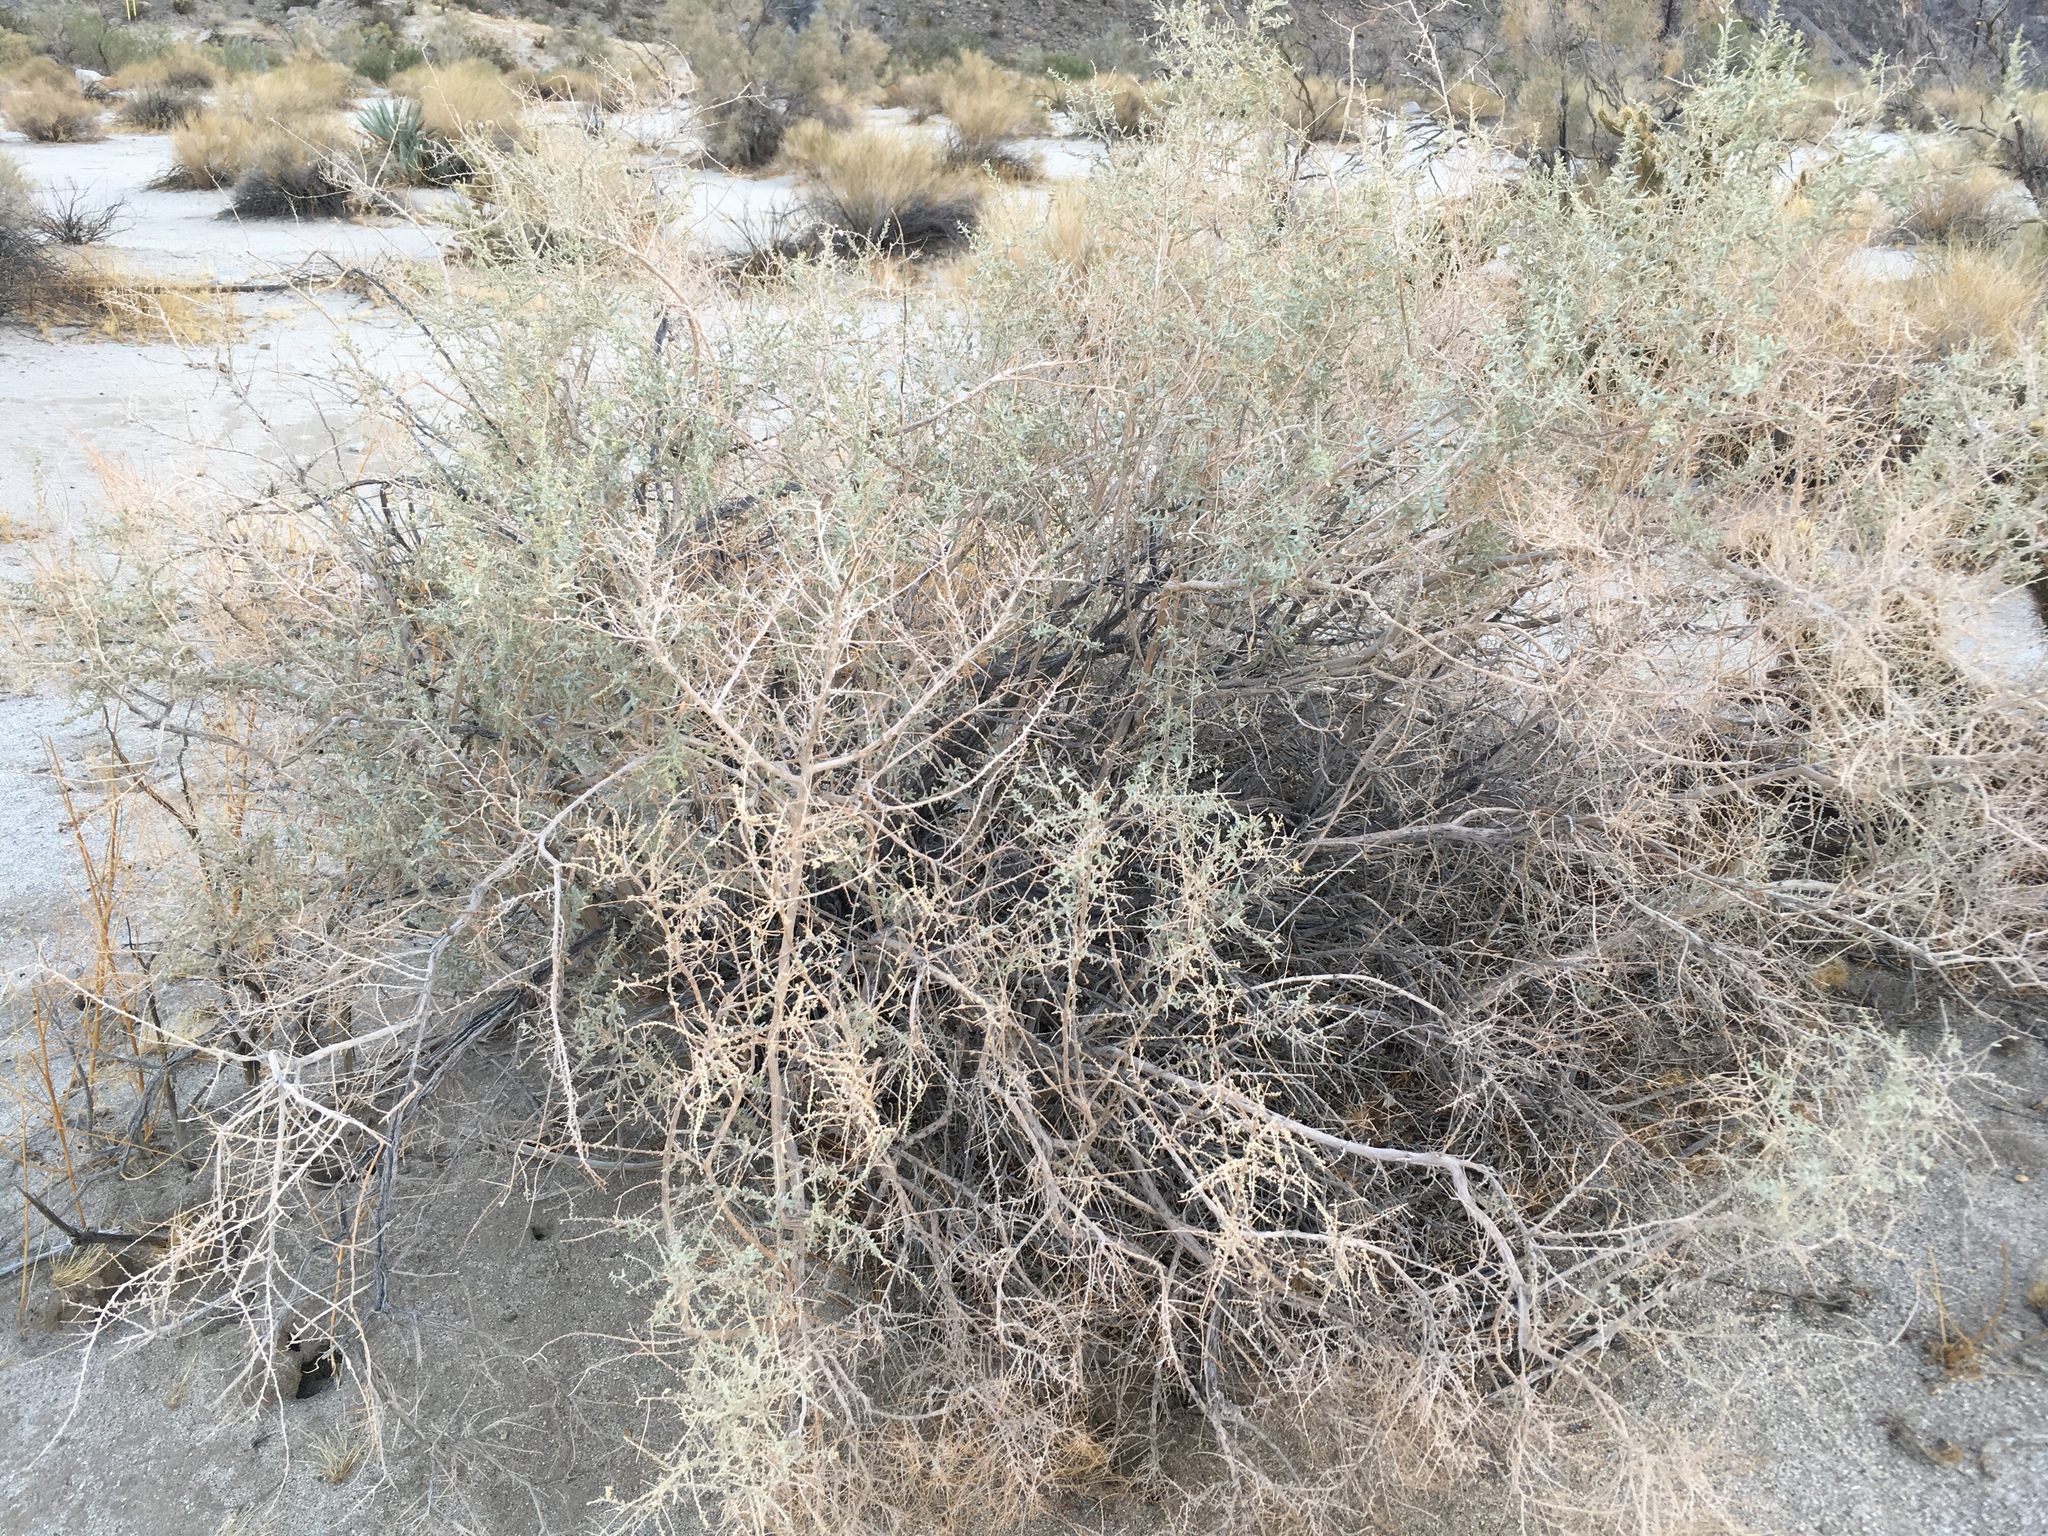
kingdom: Plantae
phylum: Tracheophyta
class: Magnoliopsida
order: Caryophyllales
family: Amaranthaceae
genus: Atriplex
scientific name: Atriplex canescens
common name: Four-wing saltbush
